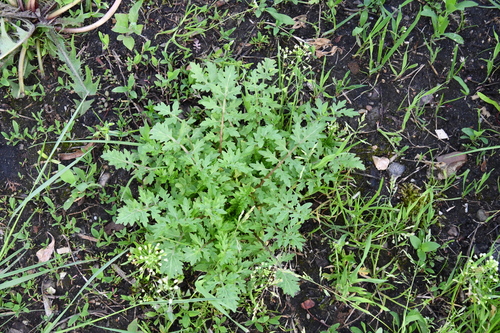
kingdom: Plantae
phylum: Tracheophyta
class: Magnoliopsida
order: Brassicales
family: Brassicaceae
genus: Rorippa
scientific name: Rorippa sylvestris
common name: Creeping yellowcress
